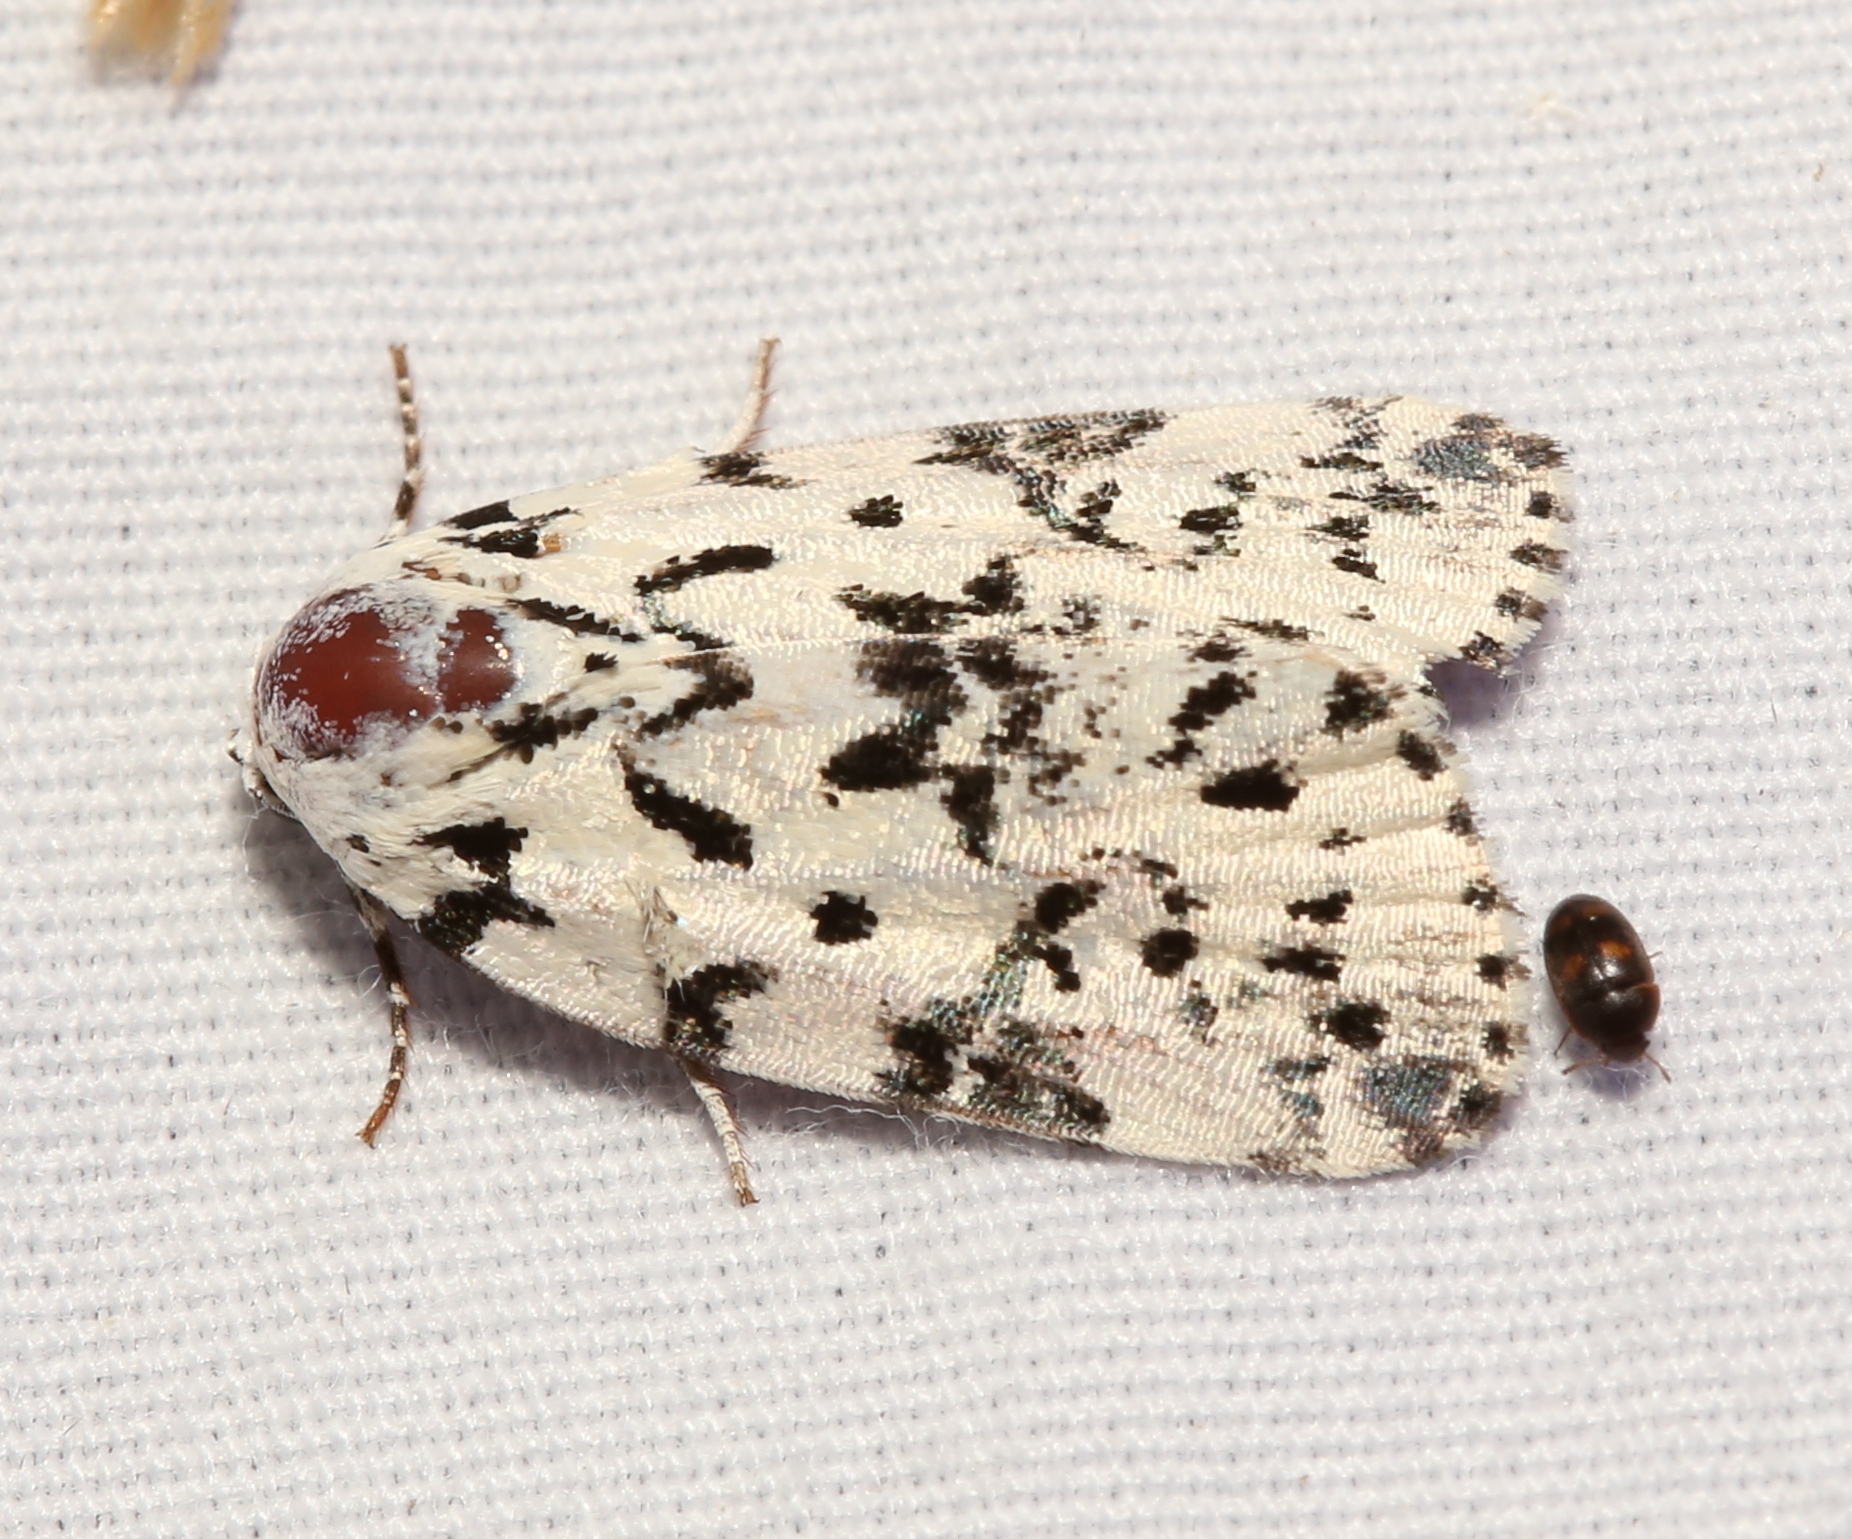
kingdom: Animalia
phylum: Arthropoda
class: Insecta
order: Lepidoptera
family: Noctuidae
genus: Polygrammate
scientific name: Polygrammate hebraeicum
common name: Hebrew moth
